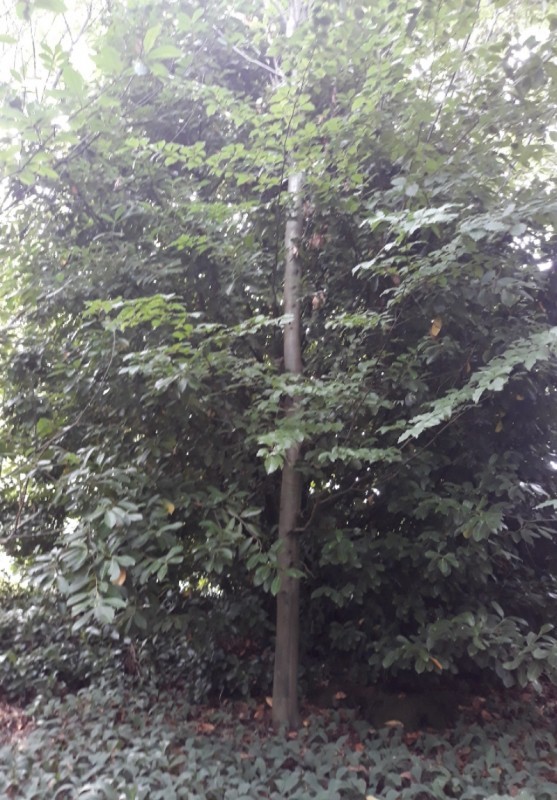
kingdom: Plantae
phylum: Tracheophyta
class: Magnoliopsida
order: Rosales
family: Rosaceae
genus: Prunus
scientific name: Prunus laurocerasus
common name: Cherry laurel
